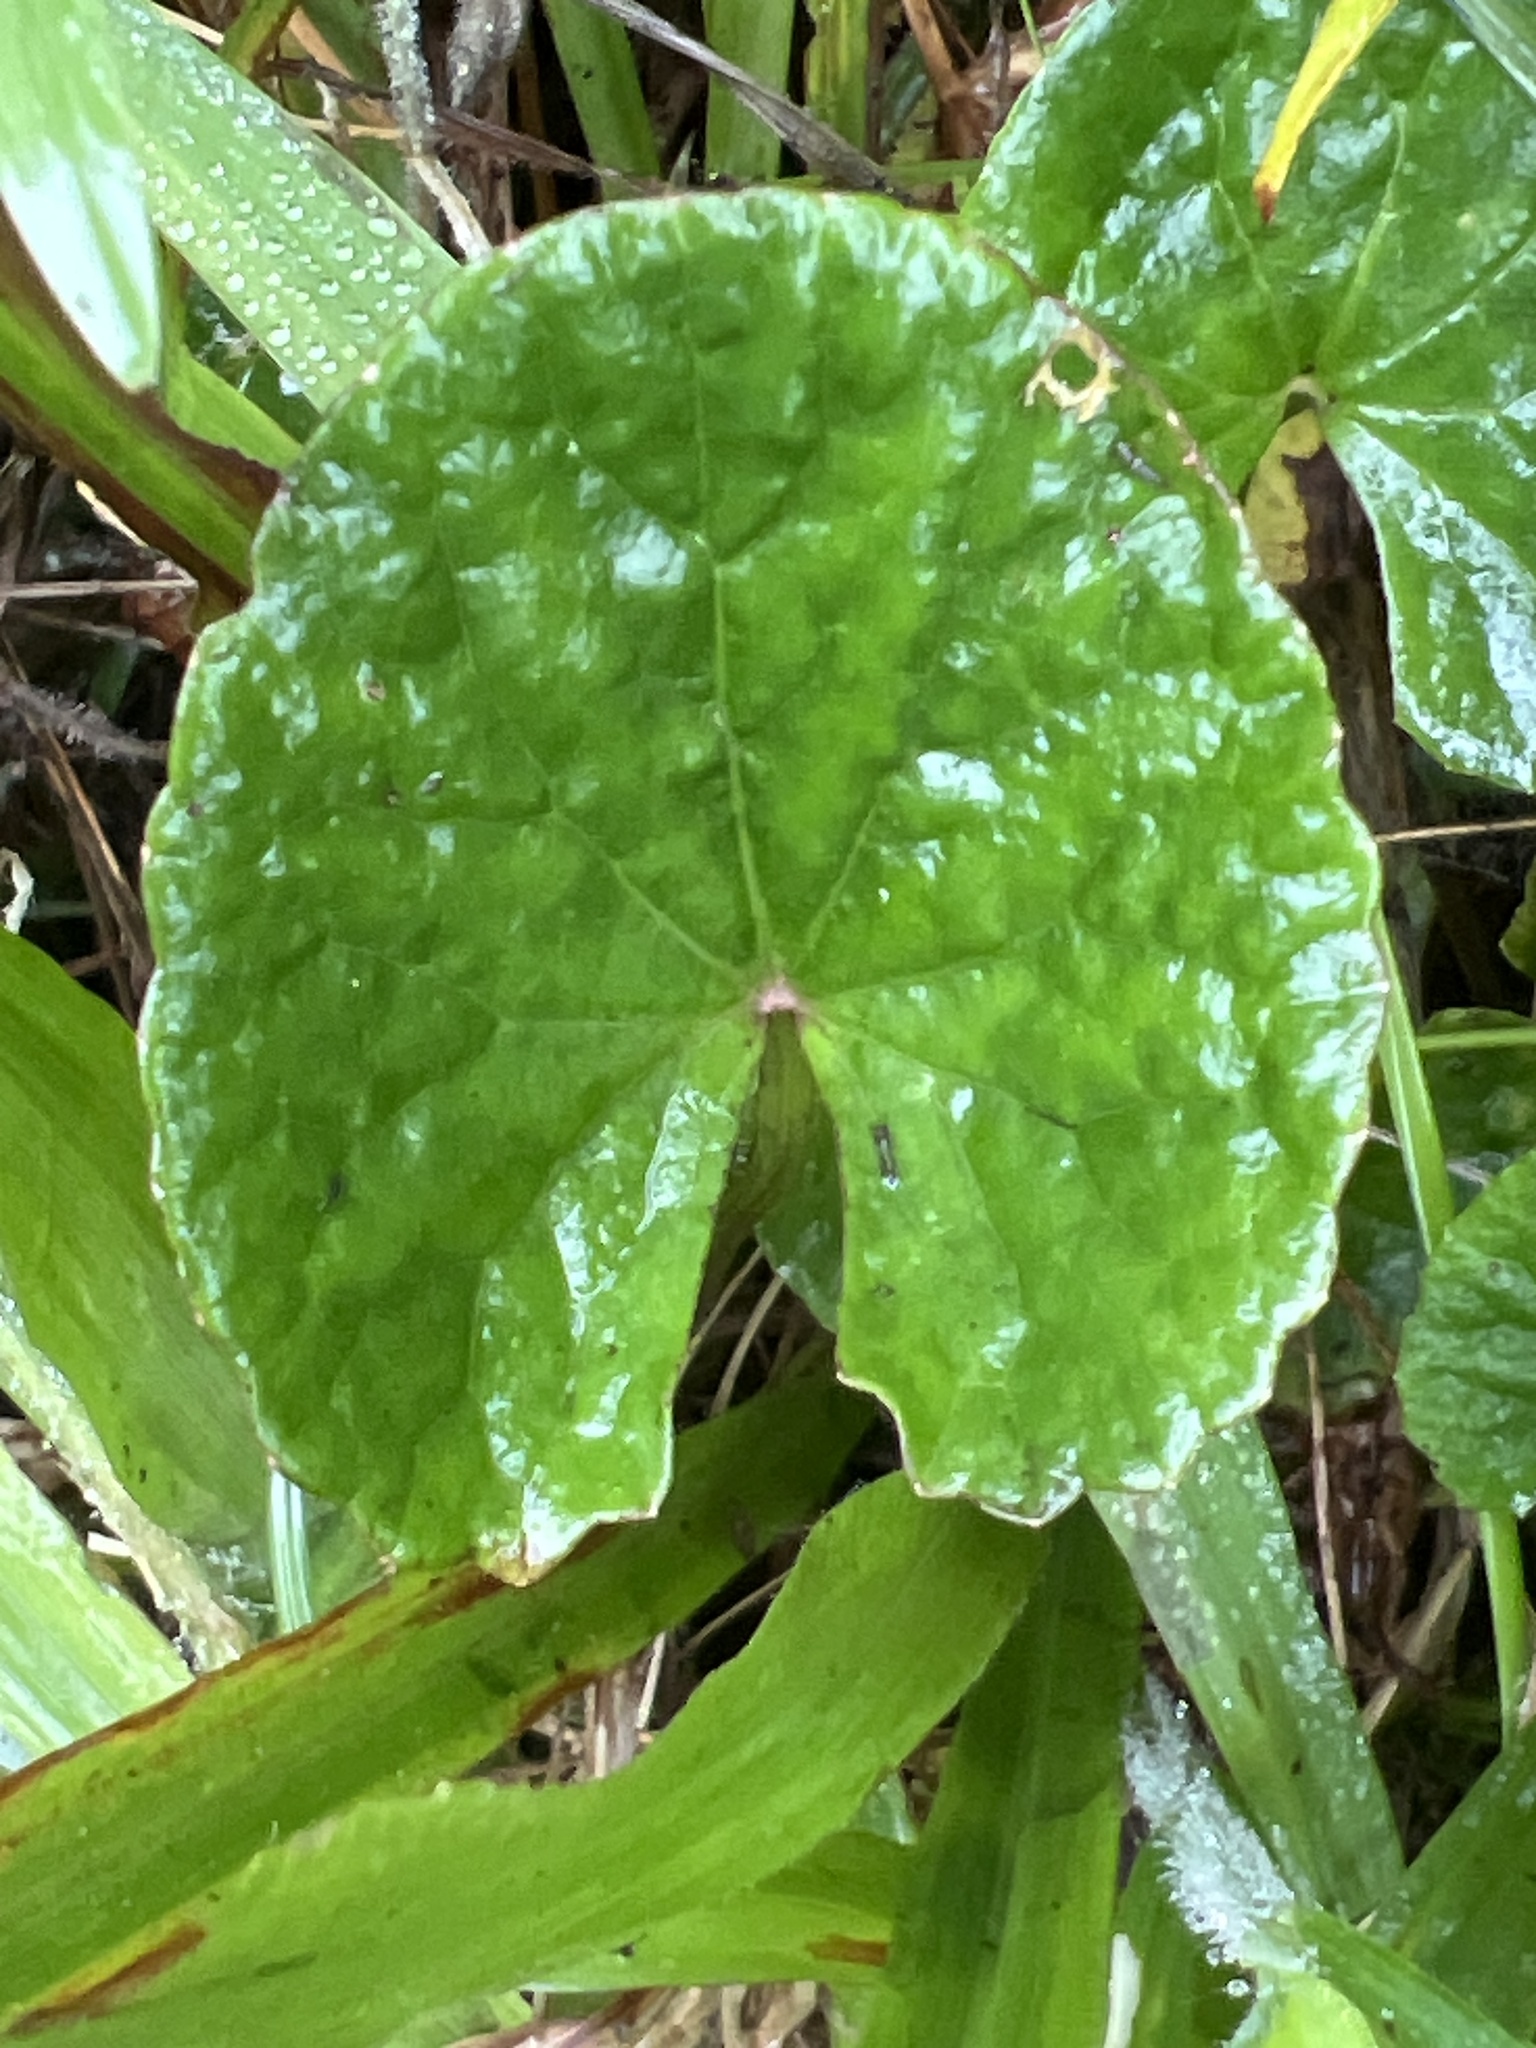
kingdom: Plantae
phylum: Tracheophyta
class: Magnoliopsida
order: Apiales
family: Apiaceae
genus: Centella
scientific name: Centella asiatica
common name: Spadeleaf
